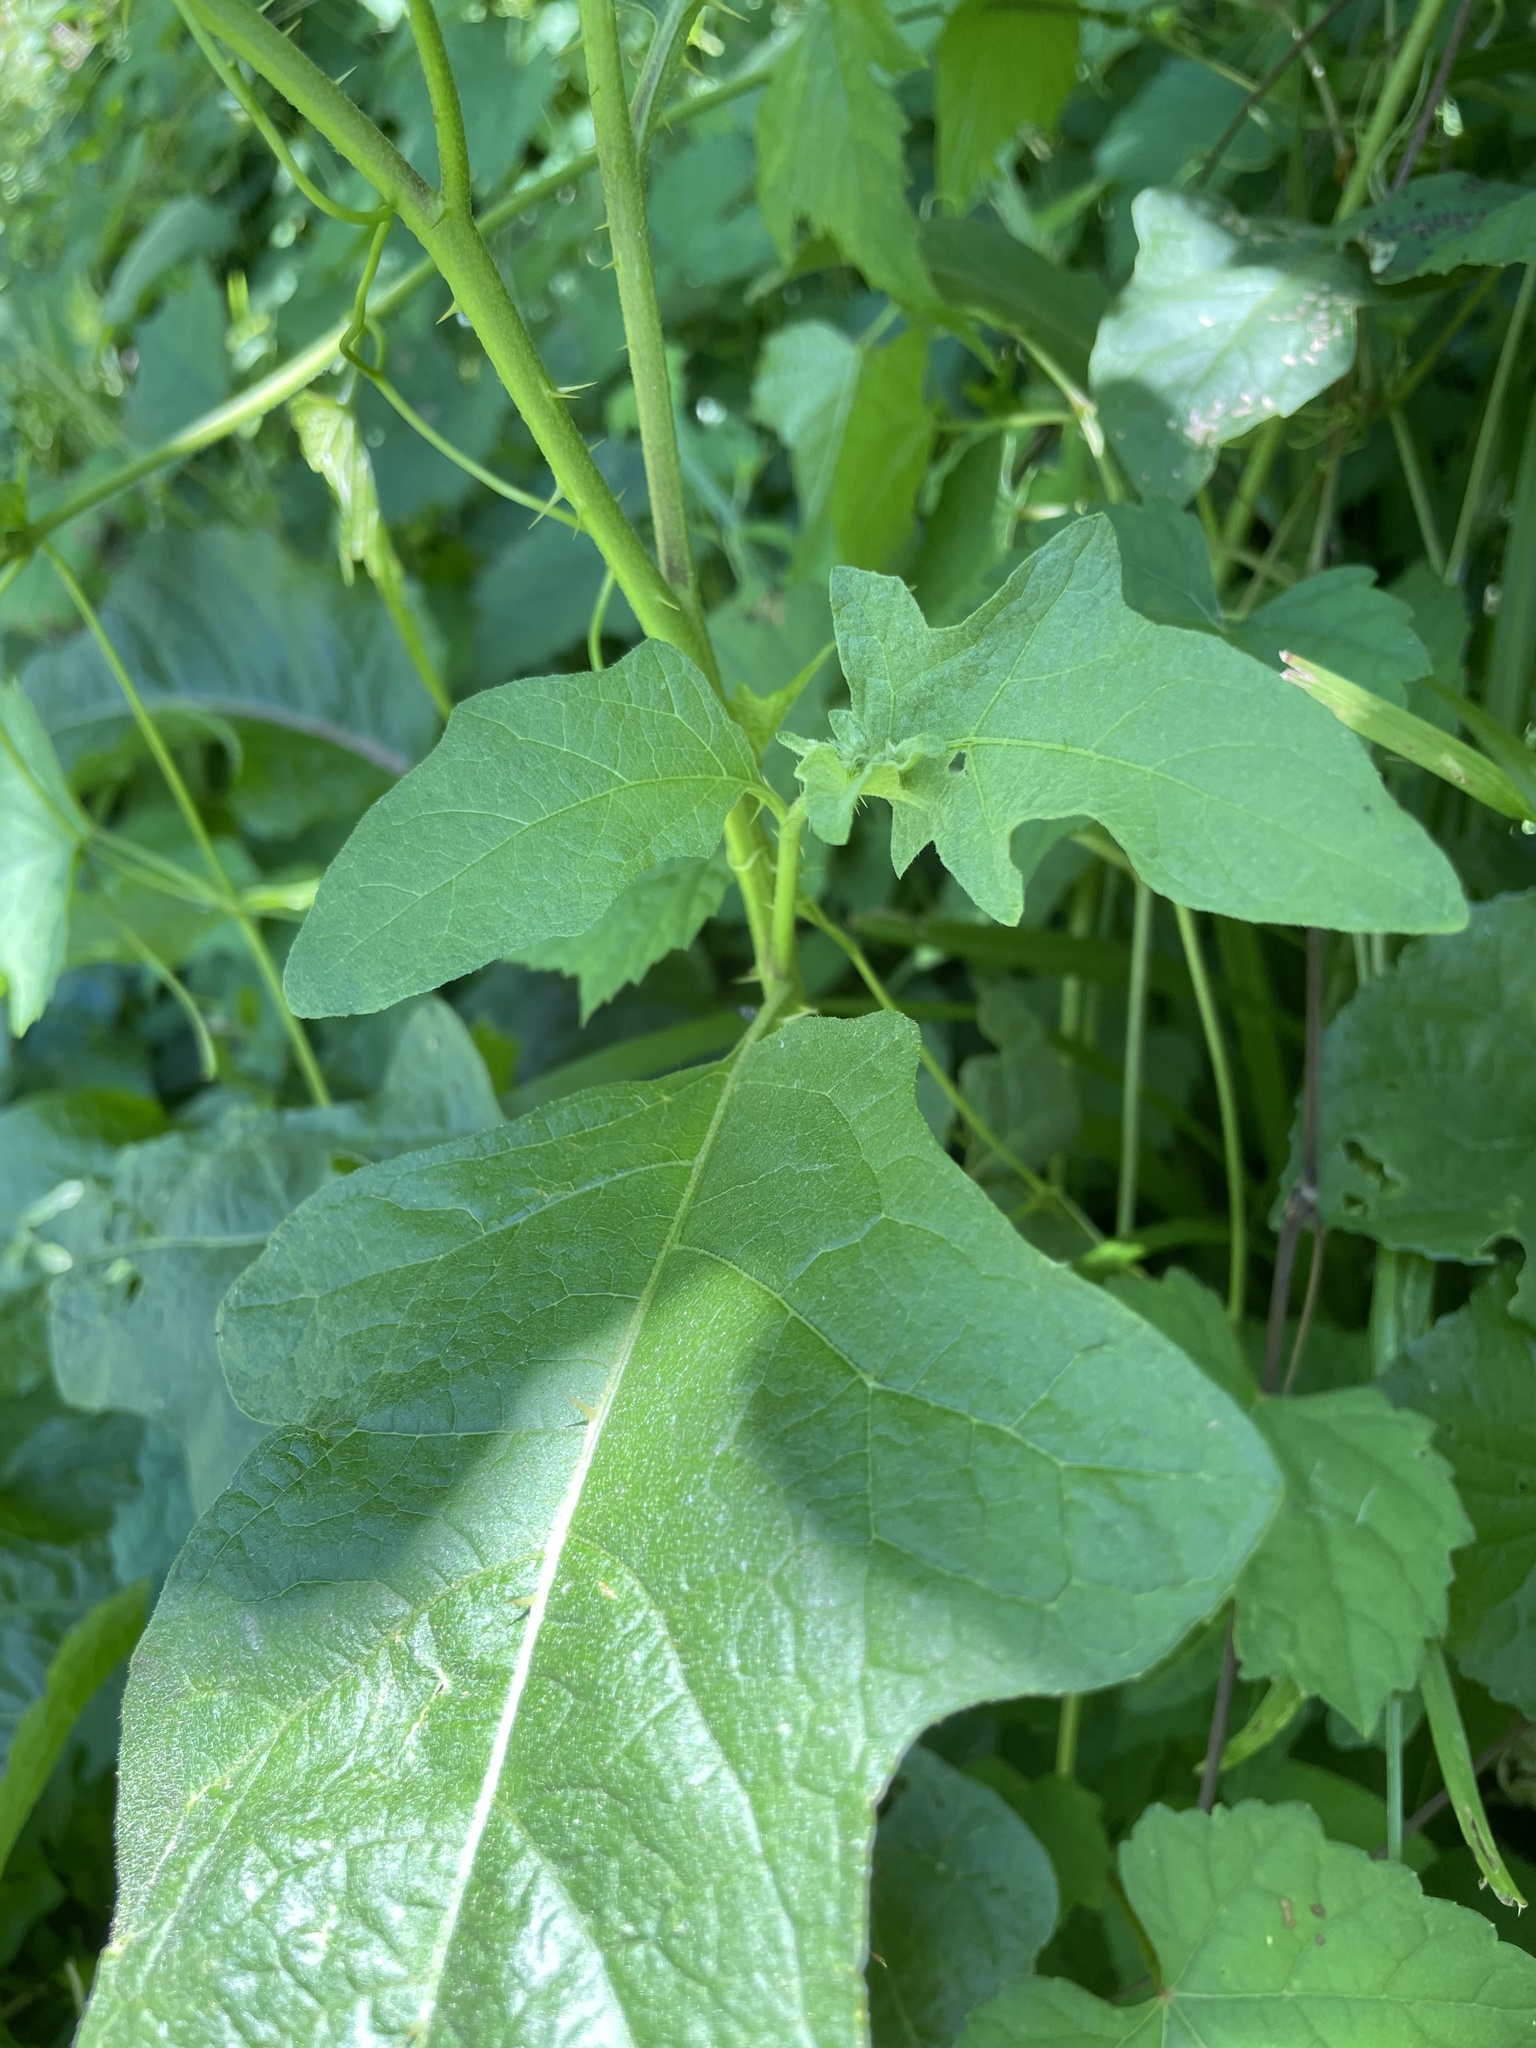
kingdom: Plantae
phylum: Tracheophyta
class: Magnoliopsida
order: Solanales
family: Solanaceae
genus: Solanum
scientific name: Solanum carolinense
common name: Horse-nettle
